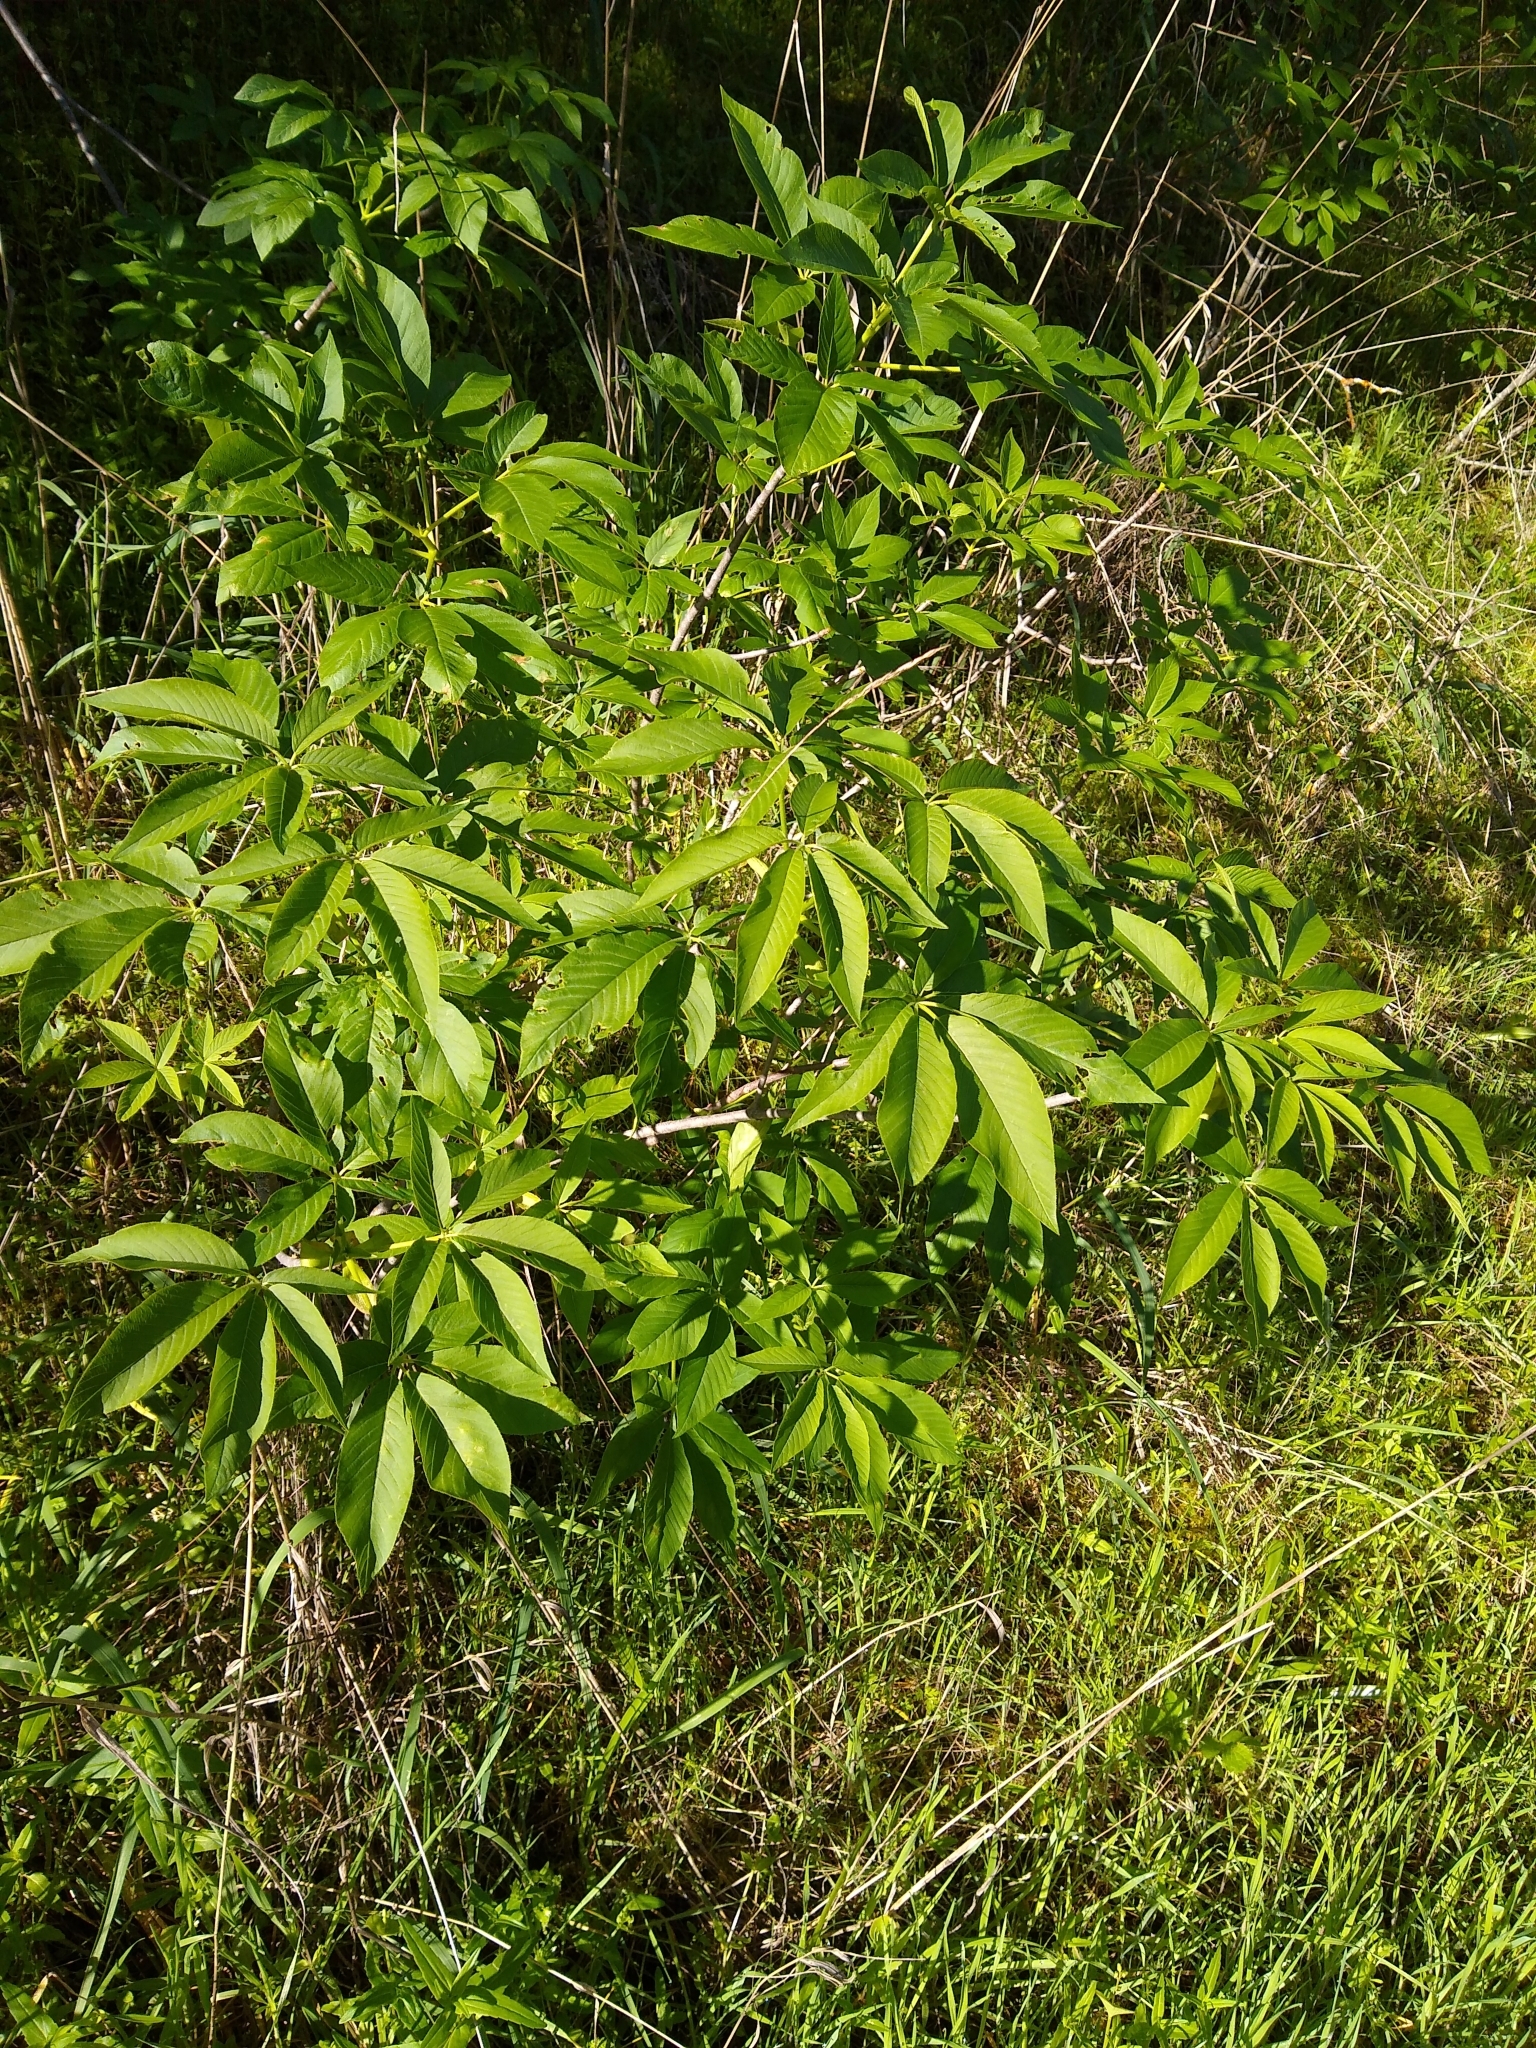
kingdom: Plantae
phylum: Tracheophyta
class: Magnoliopsida
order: Sapindales
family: Sapindaceae
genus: Aesculus
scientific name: Aesculus californica
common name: California buckeye
